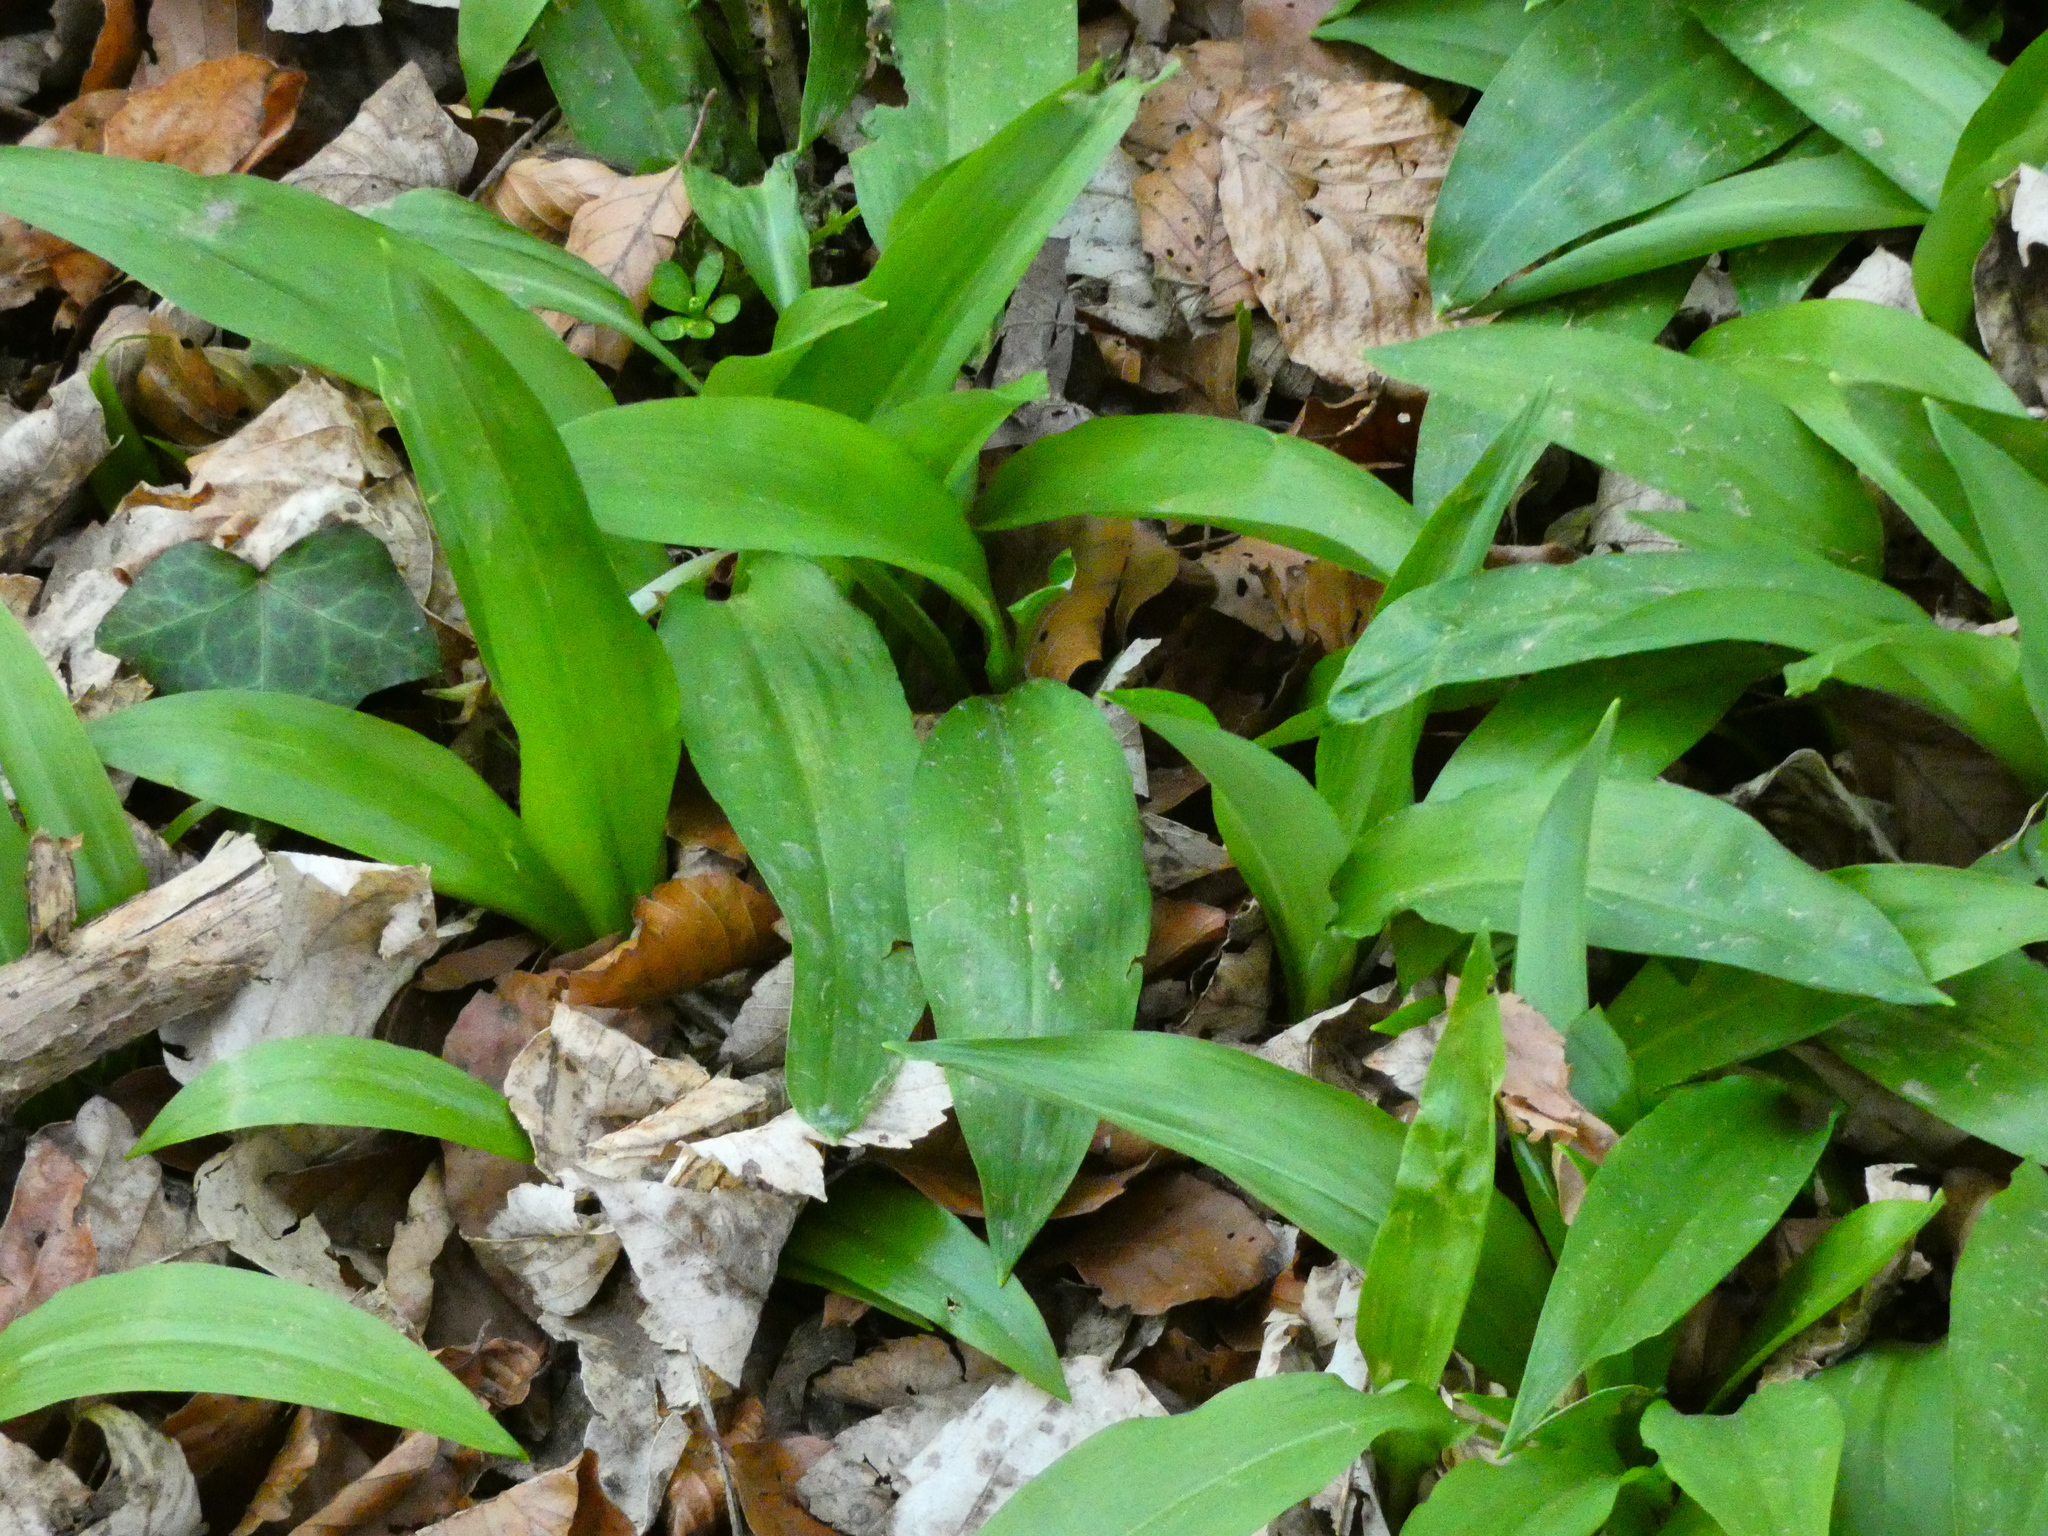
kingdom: Plantae
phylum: Tracheophyta
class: Liliopsida
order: Asparagales
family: Amaryllidaceae
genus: Allium
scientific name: Allium ursinum
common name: Ramsons
